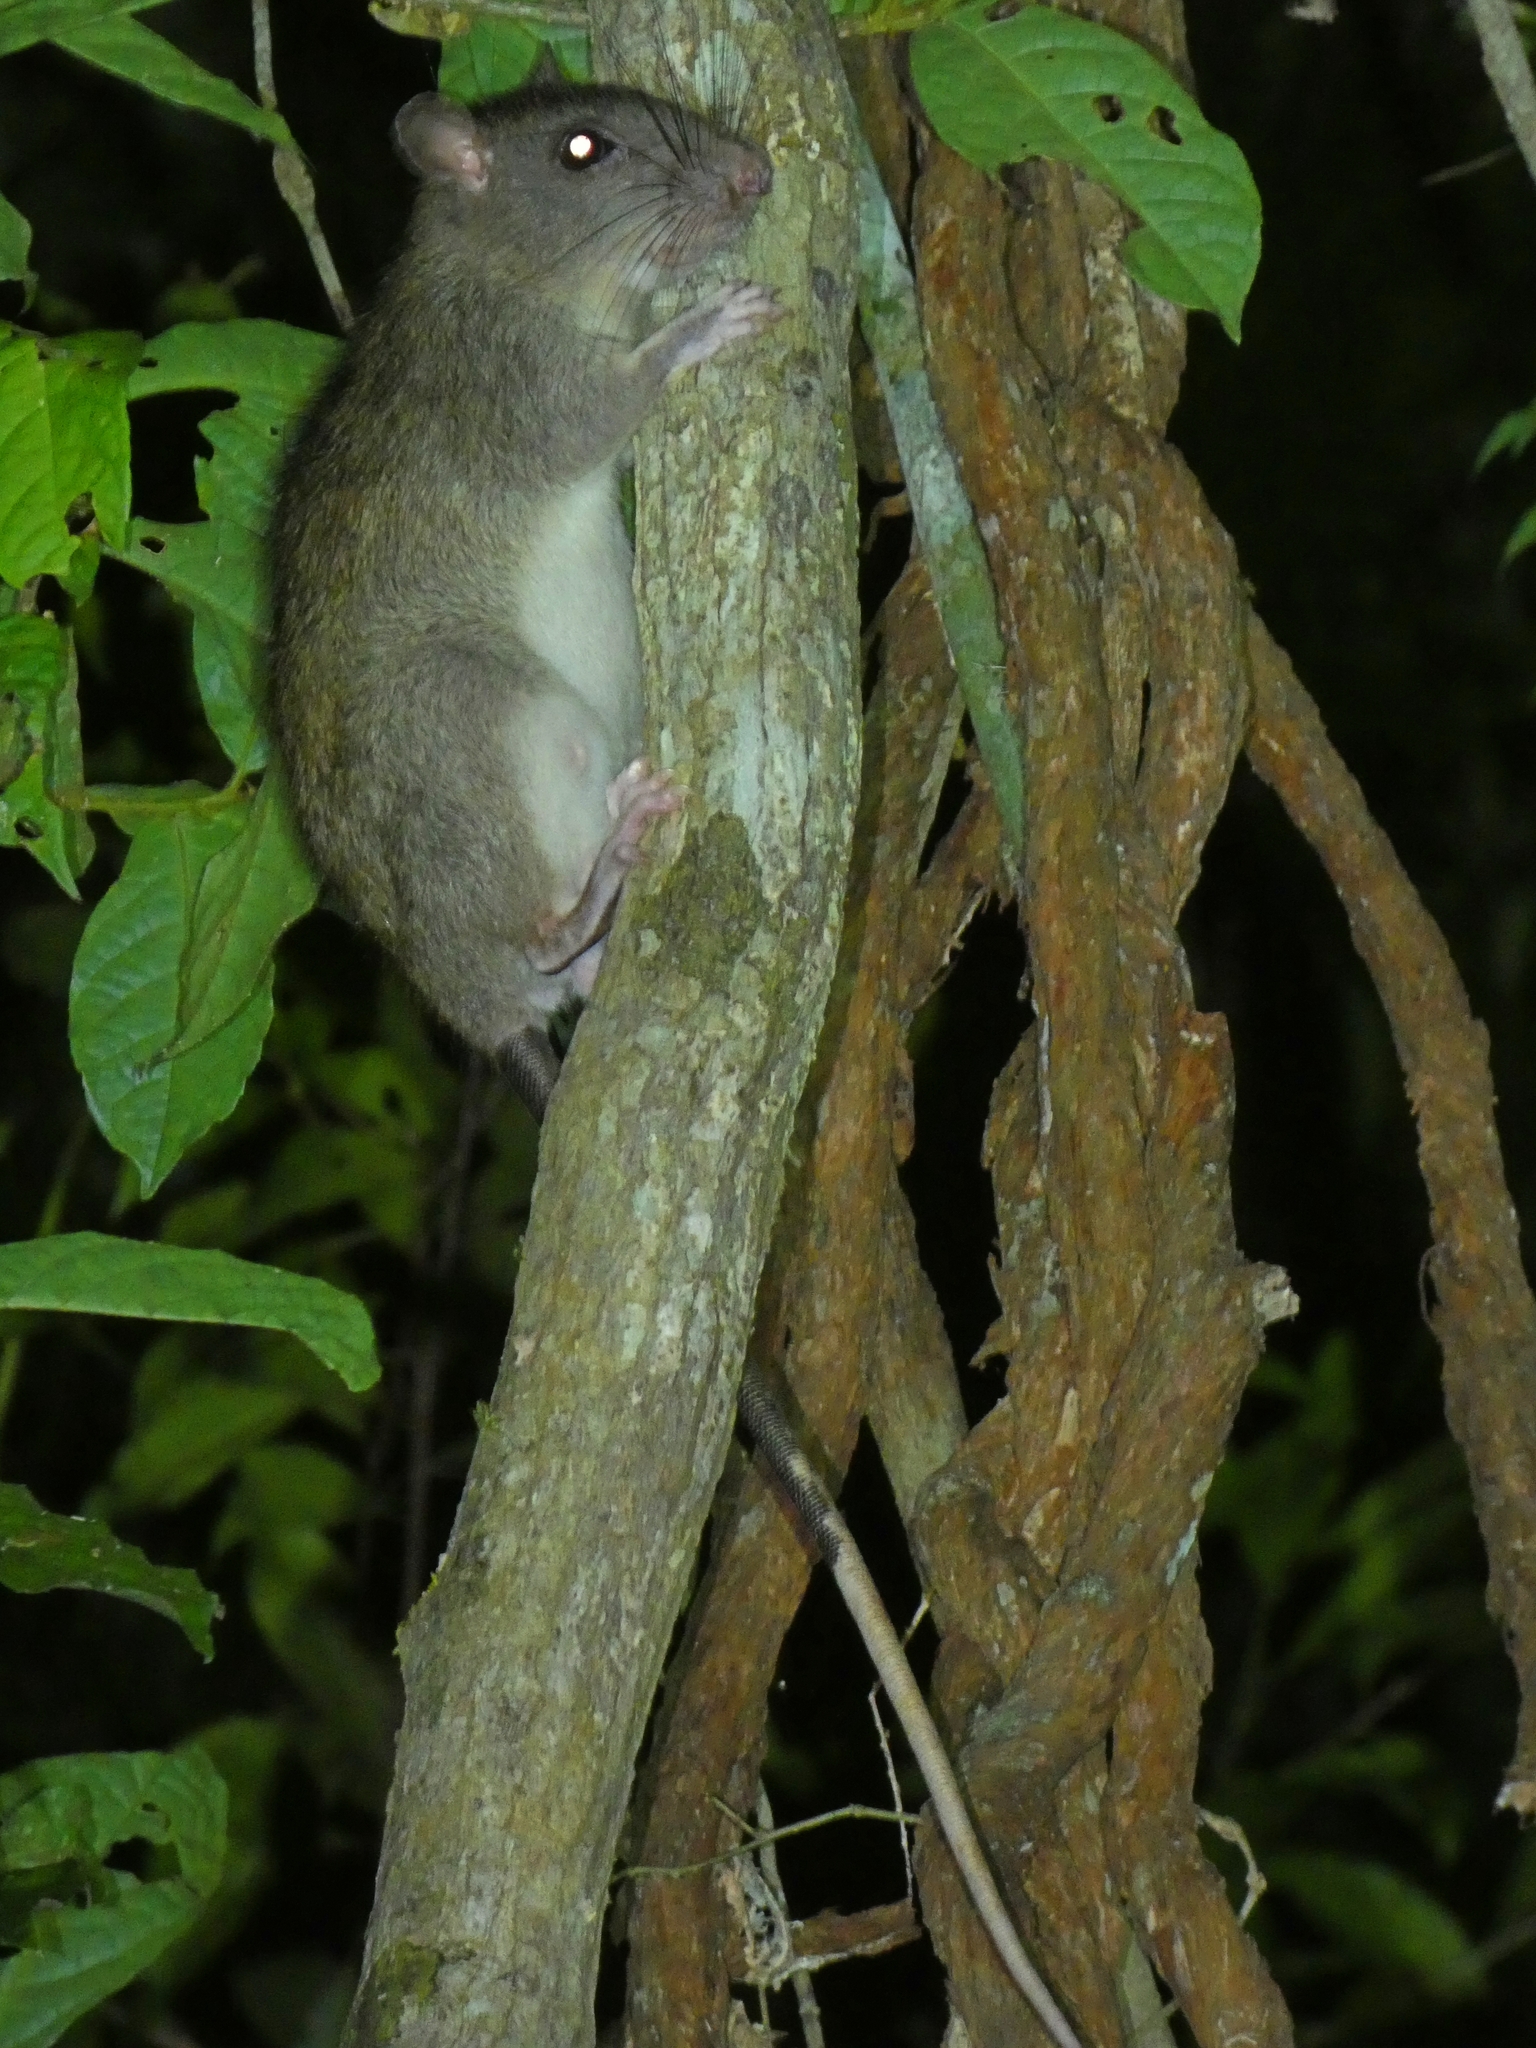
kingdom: Animalia
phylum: Chordata
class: Mammalia
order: Rodentia
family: Muridae
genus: Uromys
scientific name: Uromys caudimaculatus
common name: Giant white-tailed uromys
